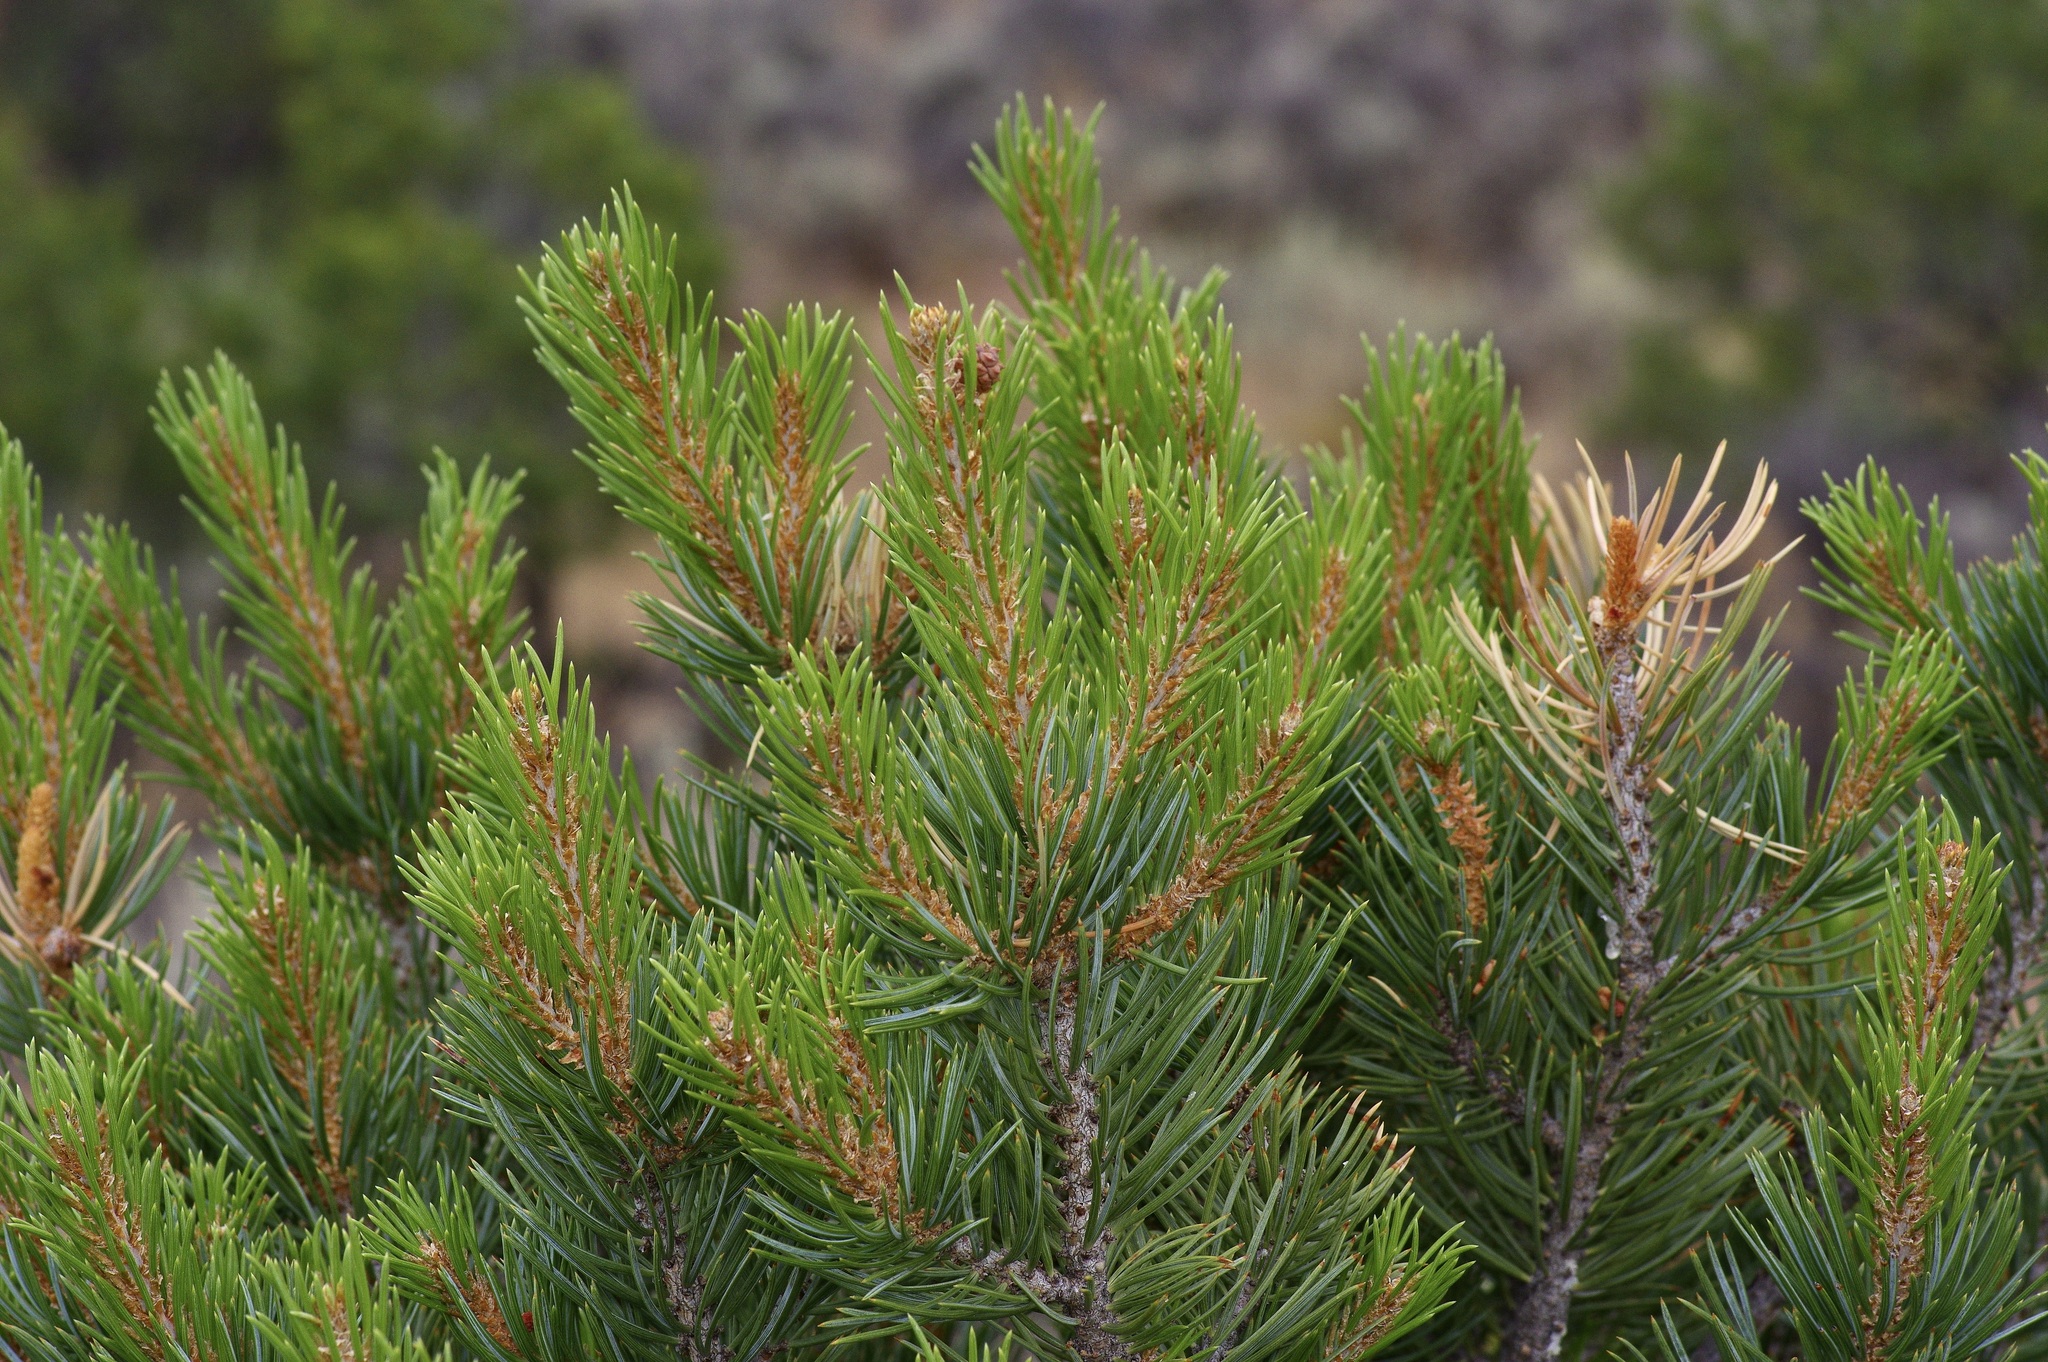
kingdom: Plantae
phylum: Tracheophyta
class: Pinopsida
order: Pinales
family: Pinaceae
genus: Pinus
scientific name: Pinus edulis
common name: Colorado pinyon
